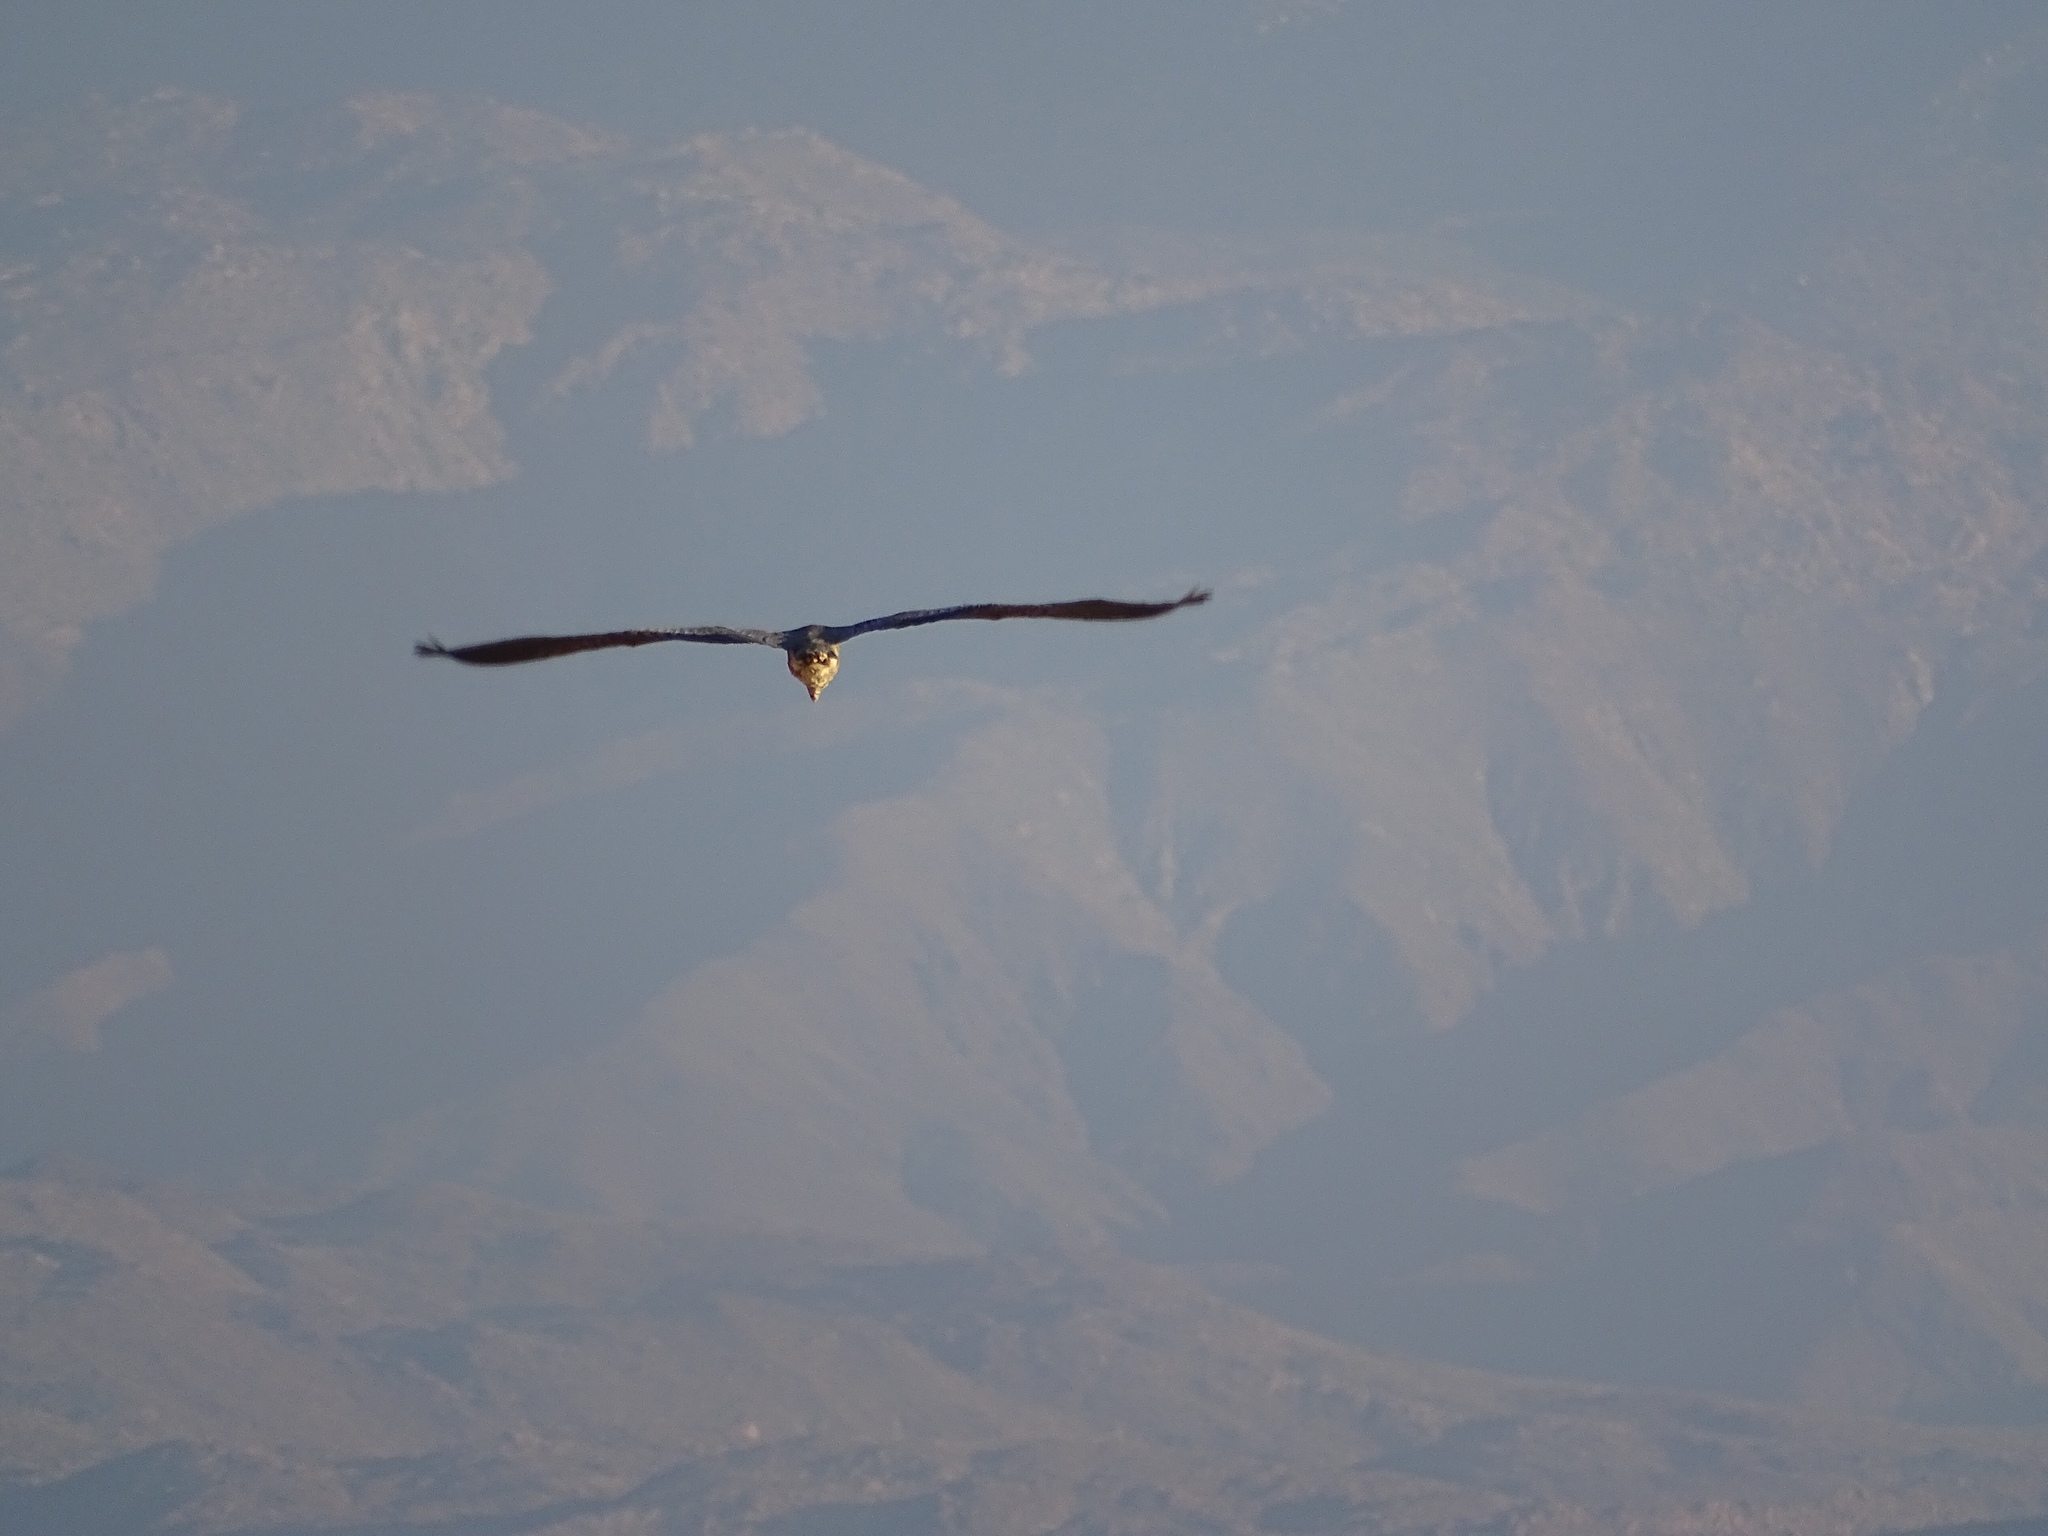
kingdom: Animalia
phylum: Chordata
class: Aves
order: Pelecaniformes
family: Ardeidae
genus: Ardea
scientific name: Ardea herodias
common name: Great blue heron
